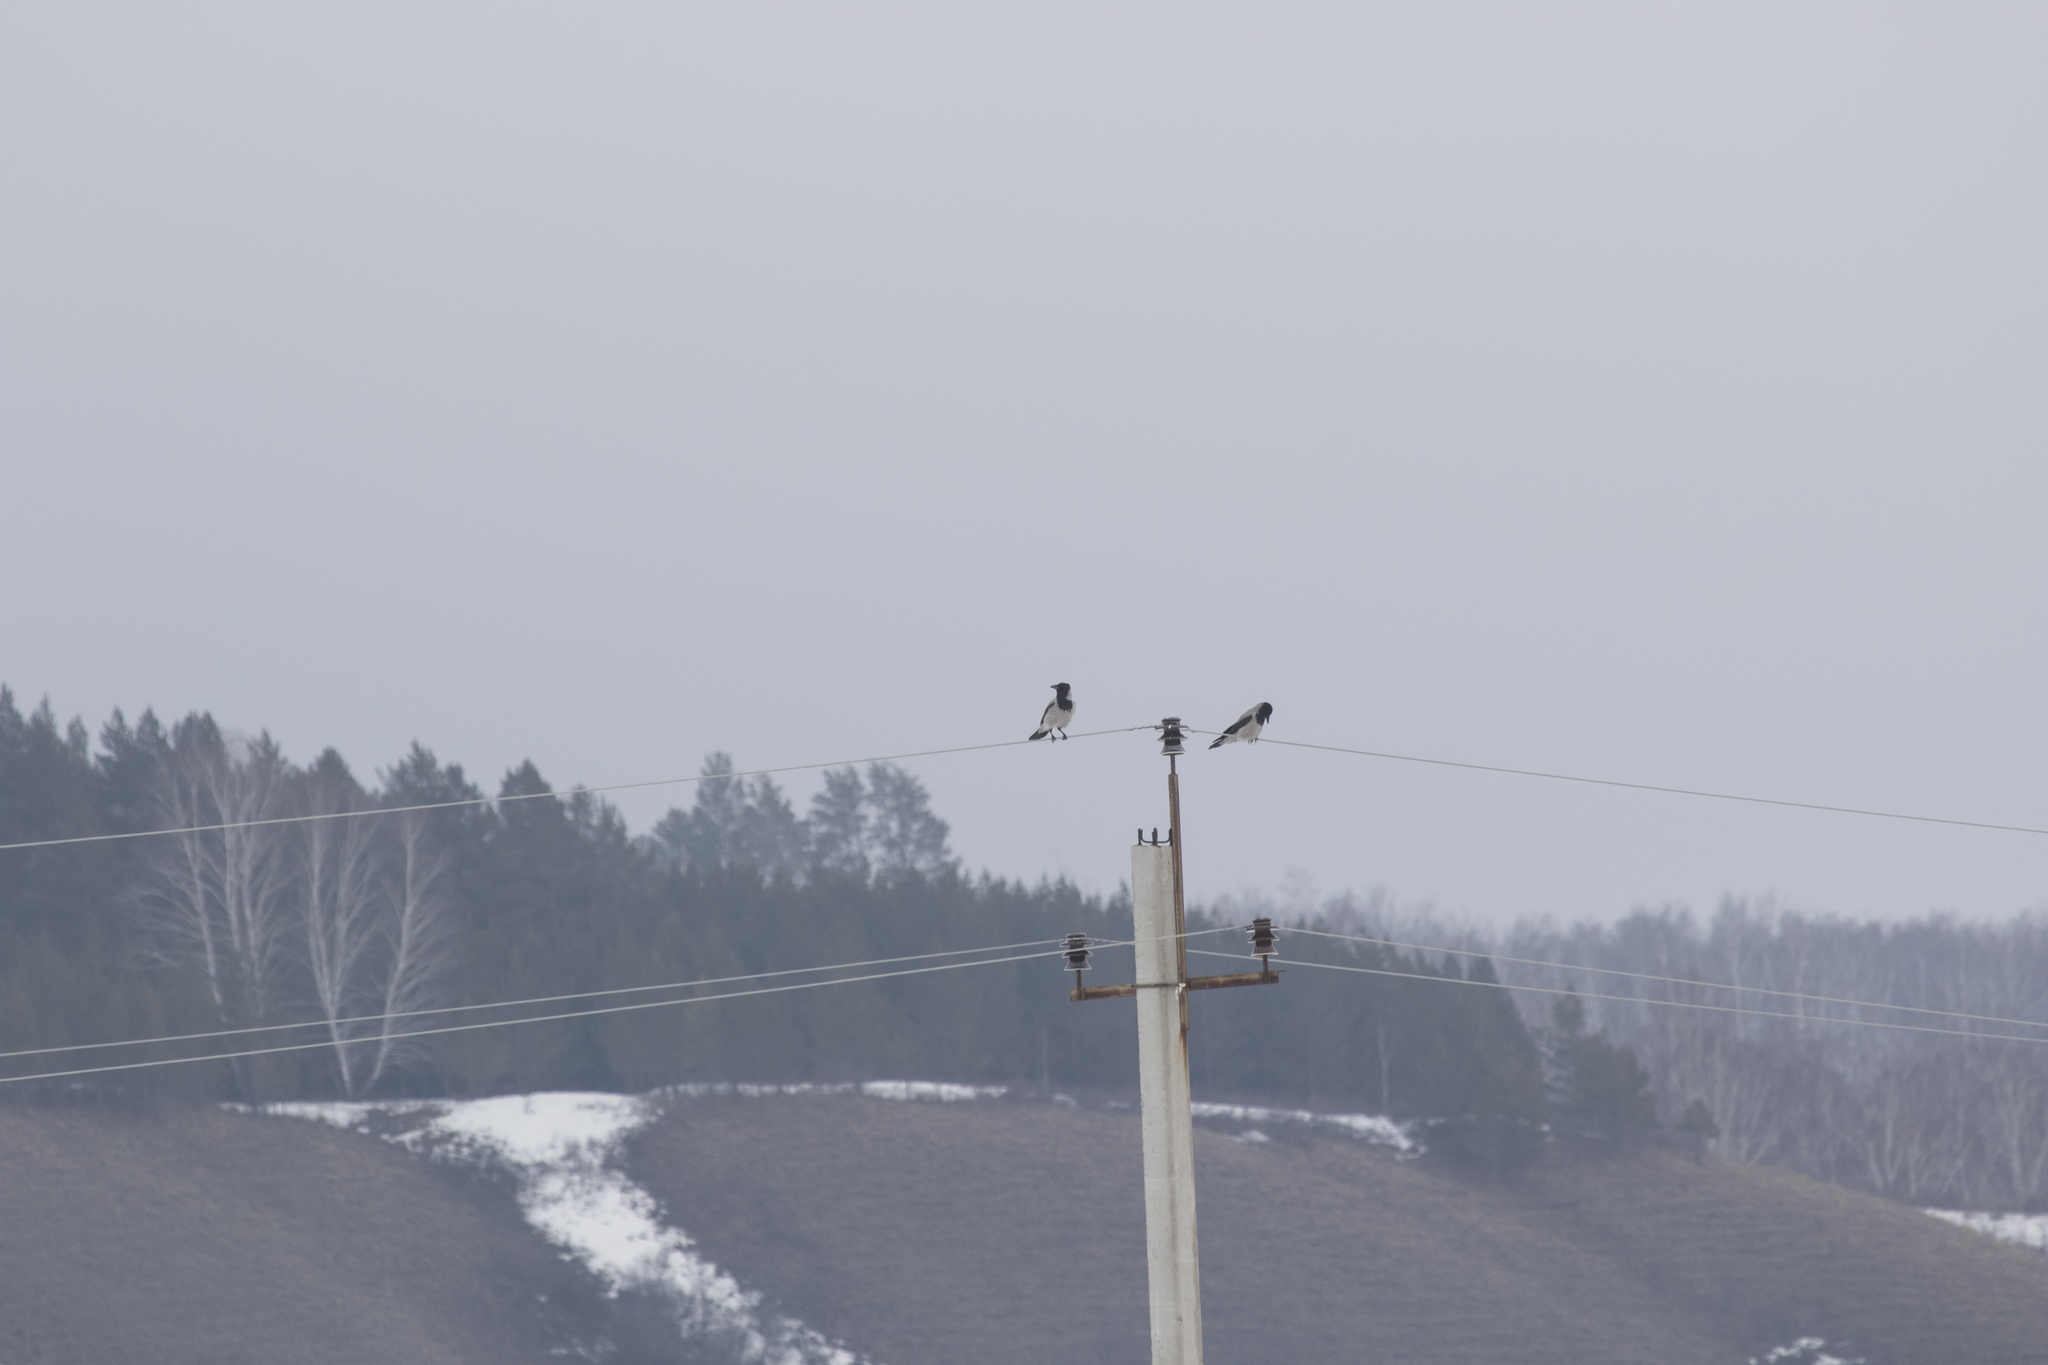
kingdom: Animalia
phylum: Chordata
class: Aves
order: Passeriformes
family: Corvidae
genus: Corvus
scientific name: Corvus cornix
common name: Hooded crow
